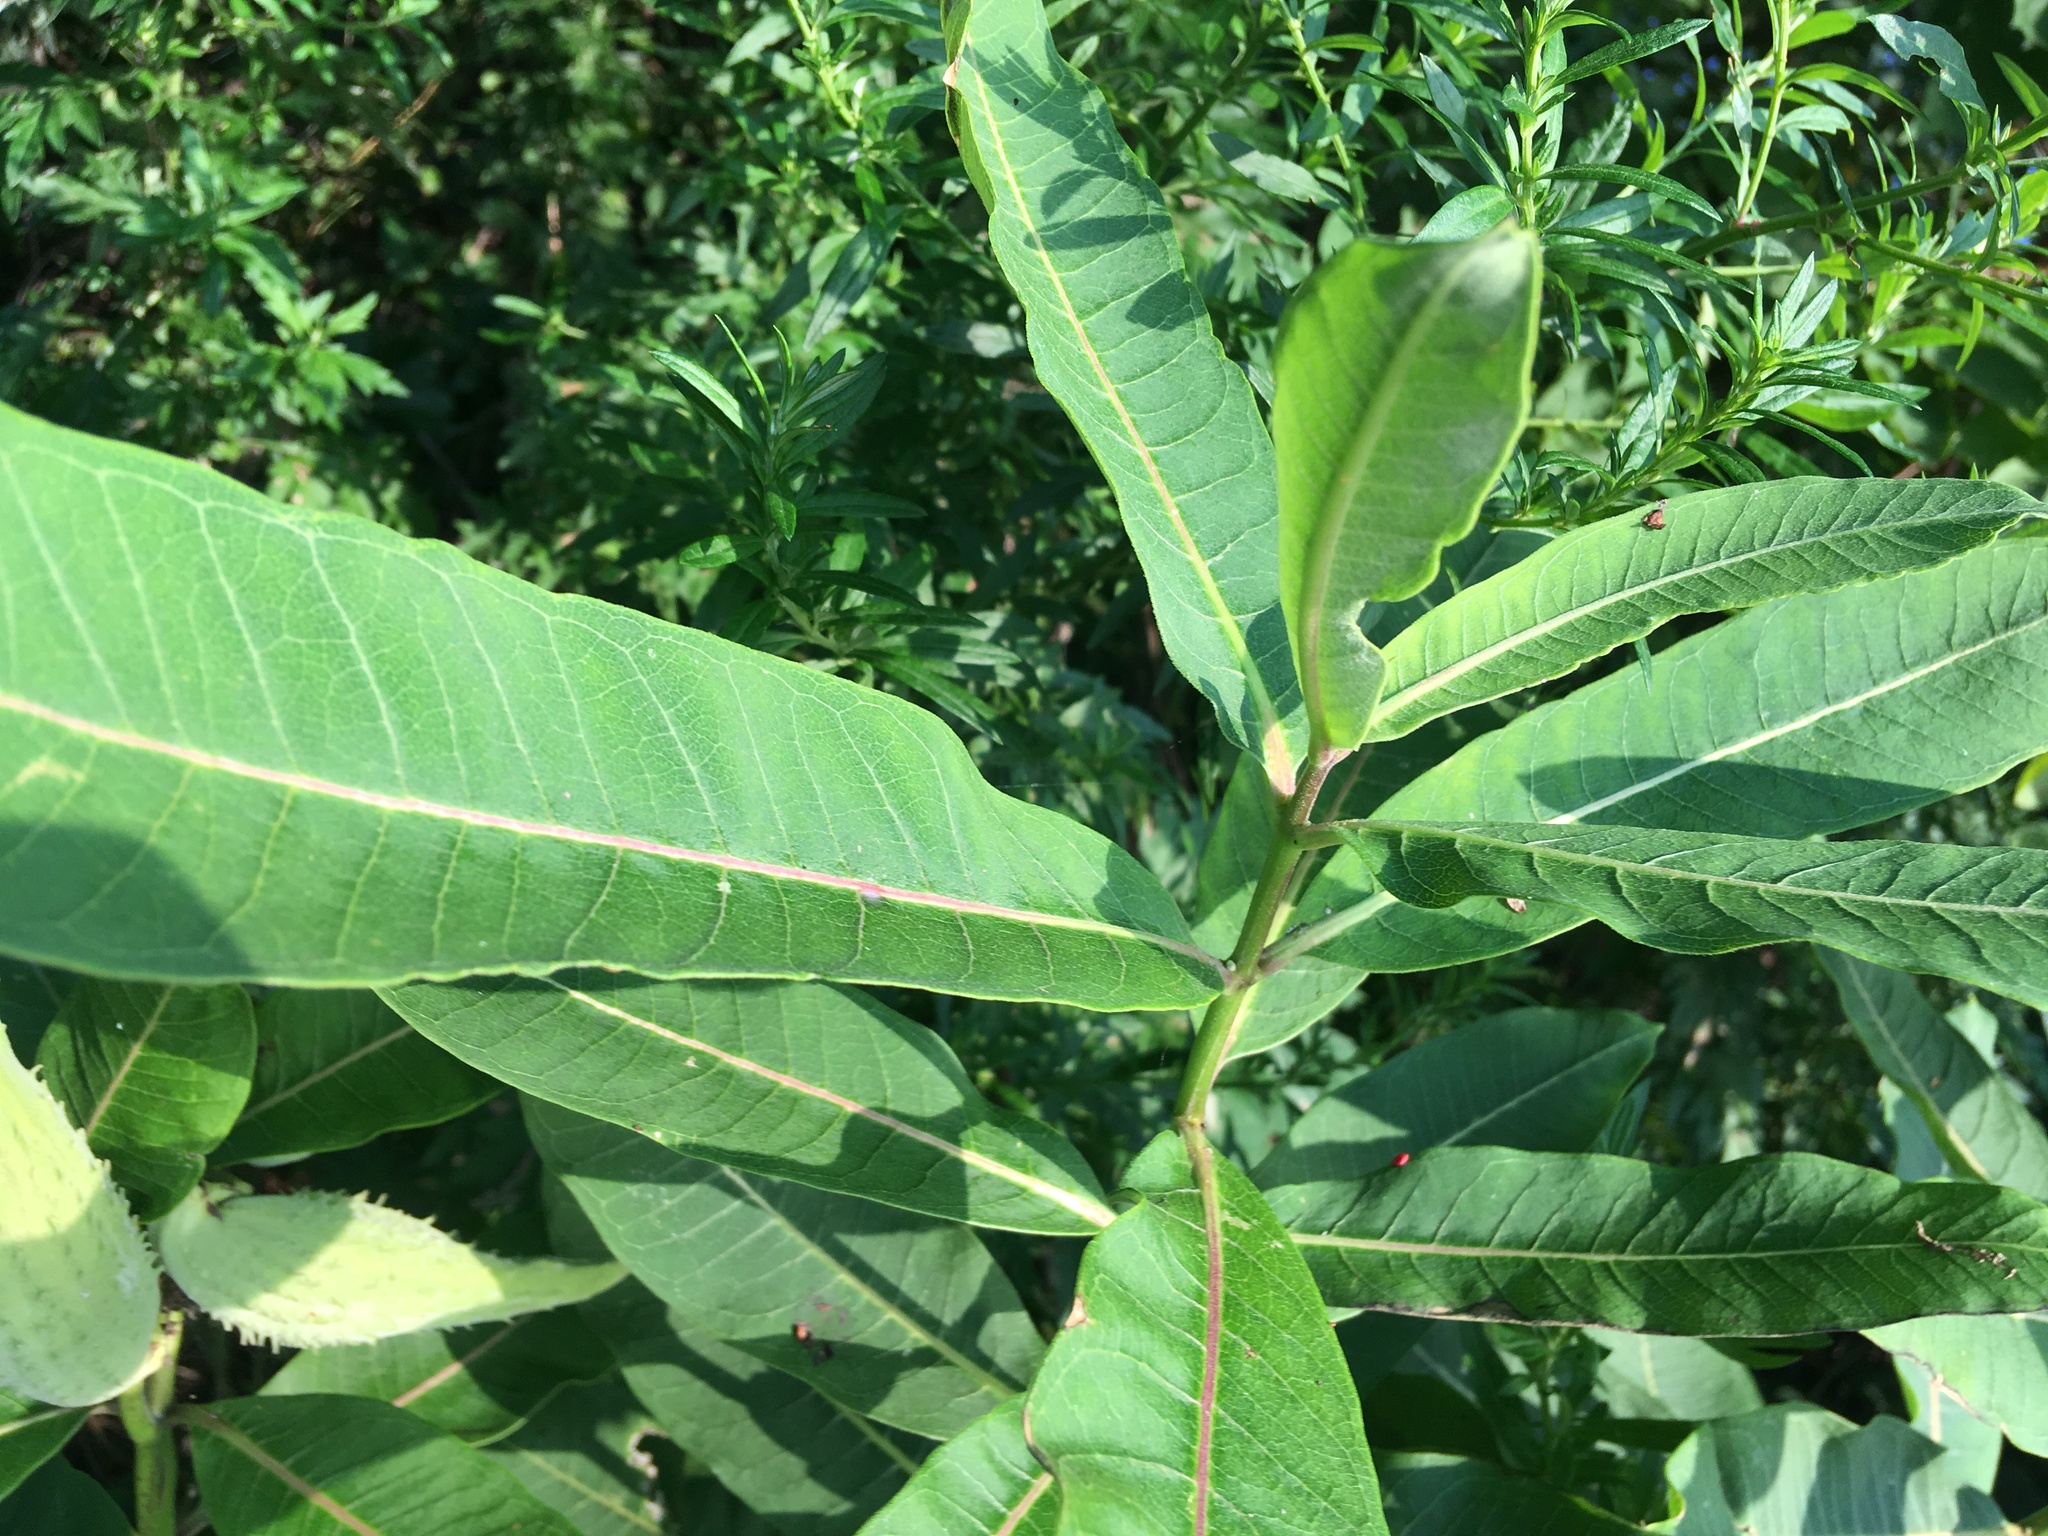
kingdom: Plantae
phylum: Tracheophyta
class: Magnoliopsida
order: Gentianales
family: Apocynaceae
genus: Asclepias
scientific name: Asclepias syriaca
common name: Common milkweed
